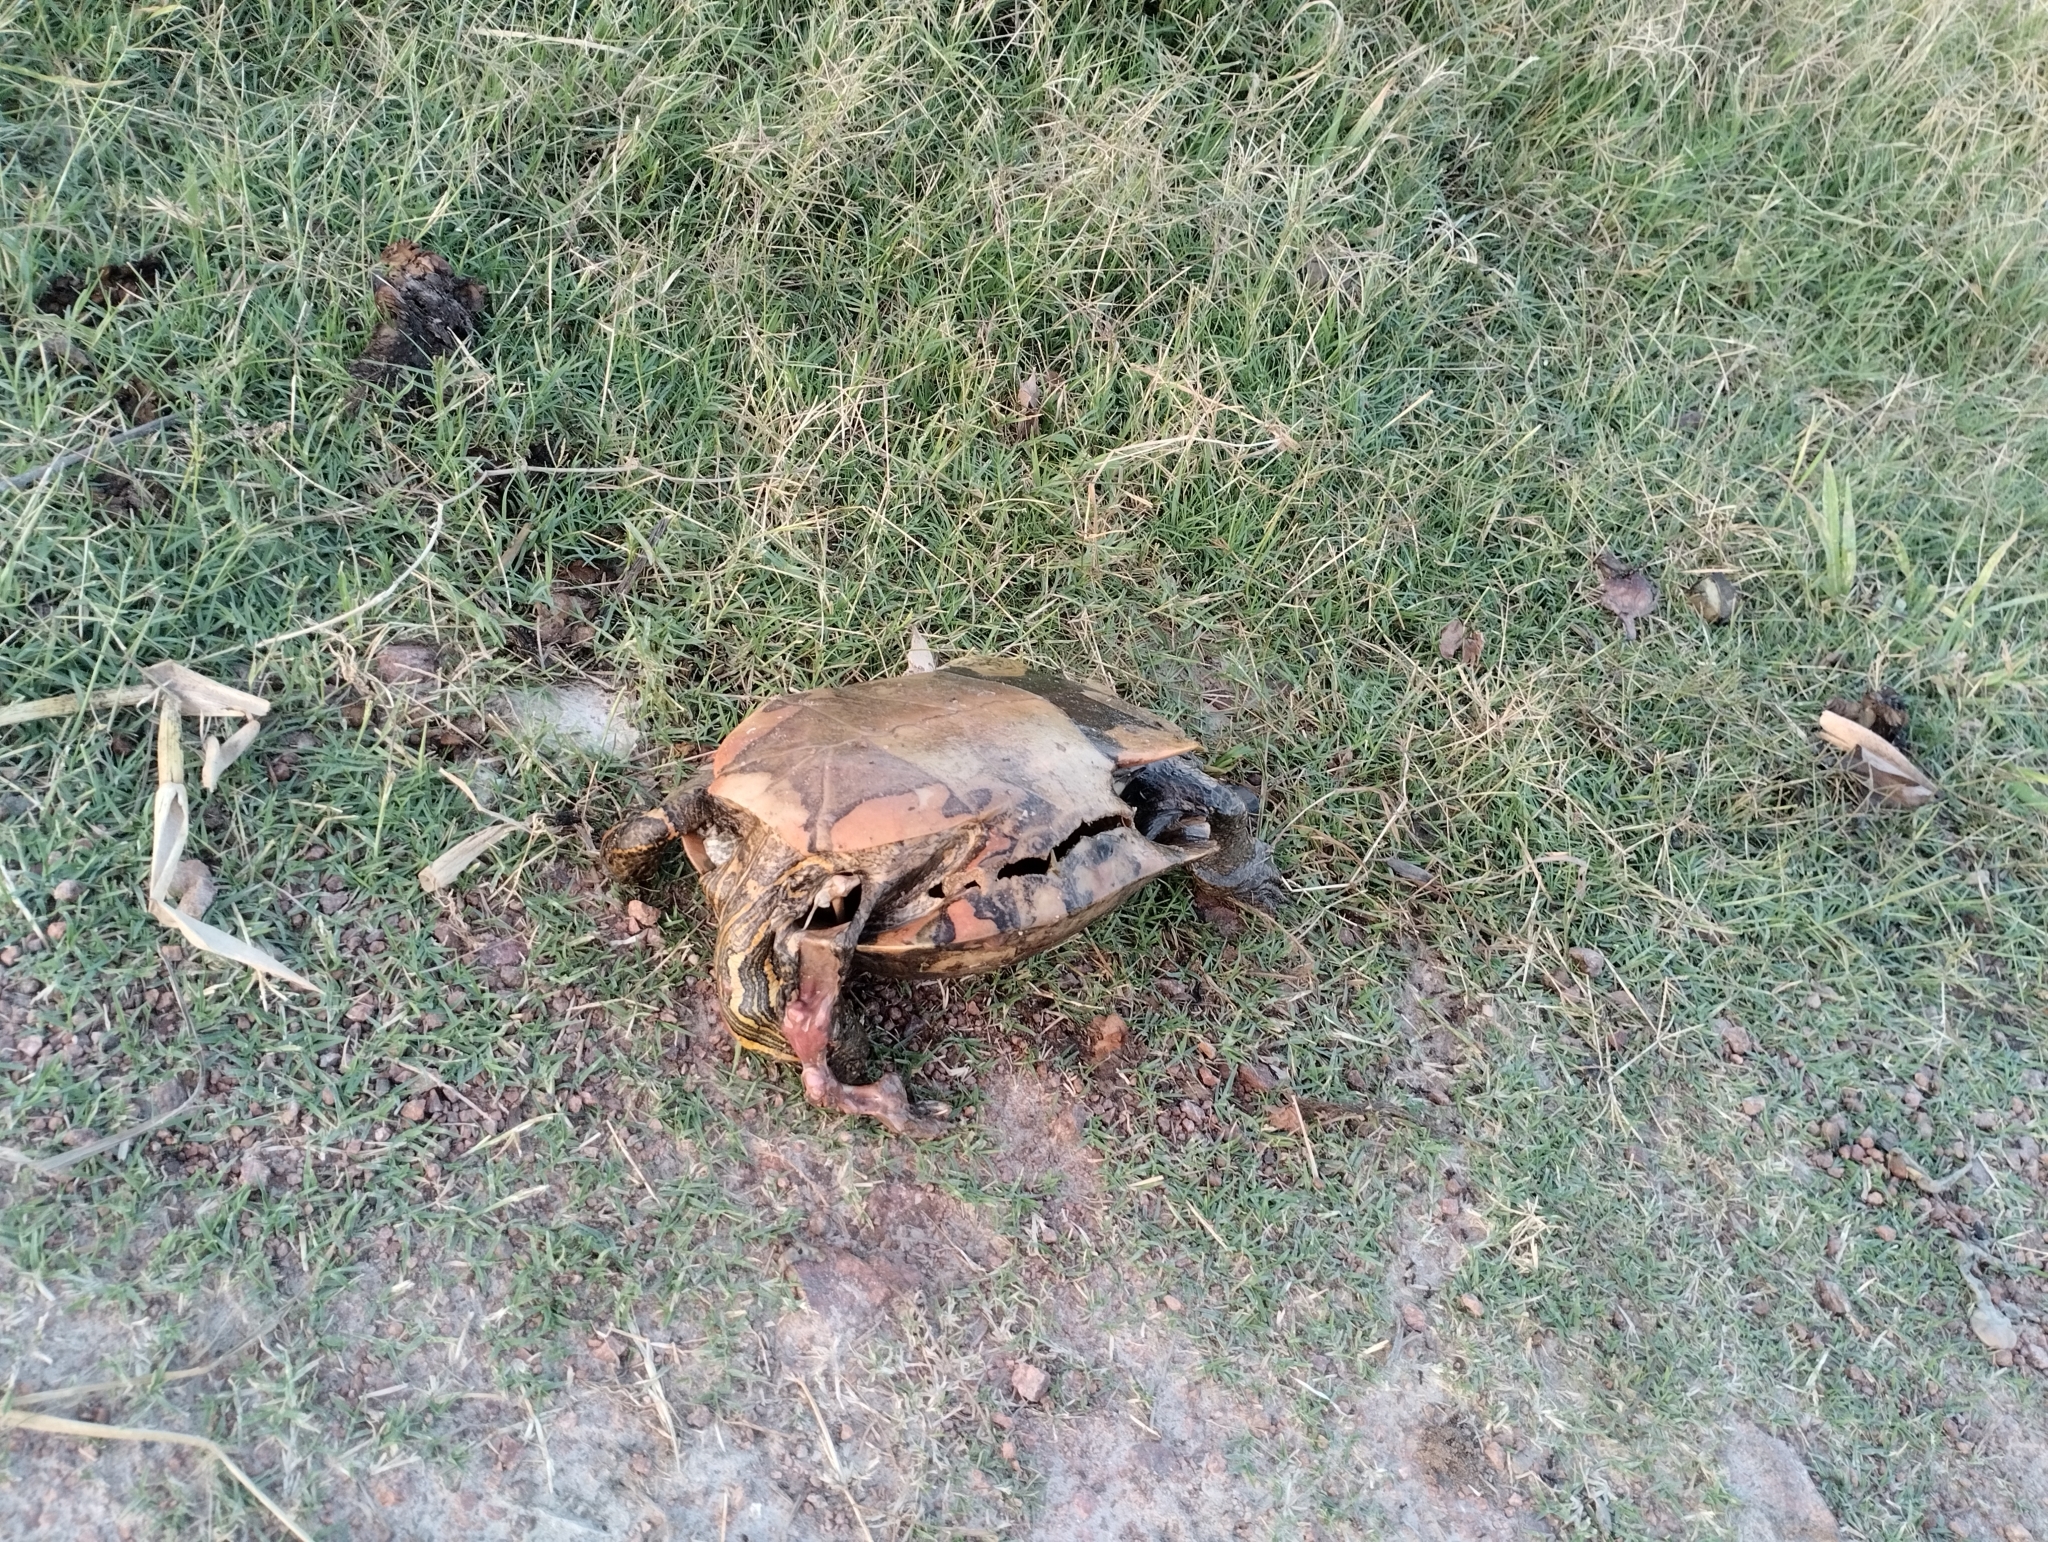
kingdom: Animalia
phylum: Chordata
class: Testudines
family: Emydidae
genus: Trachemys
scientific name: Trachemys dorbigni
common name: Black-bellied slider
